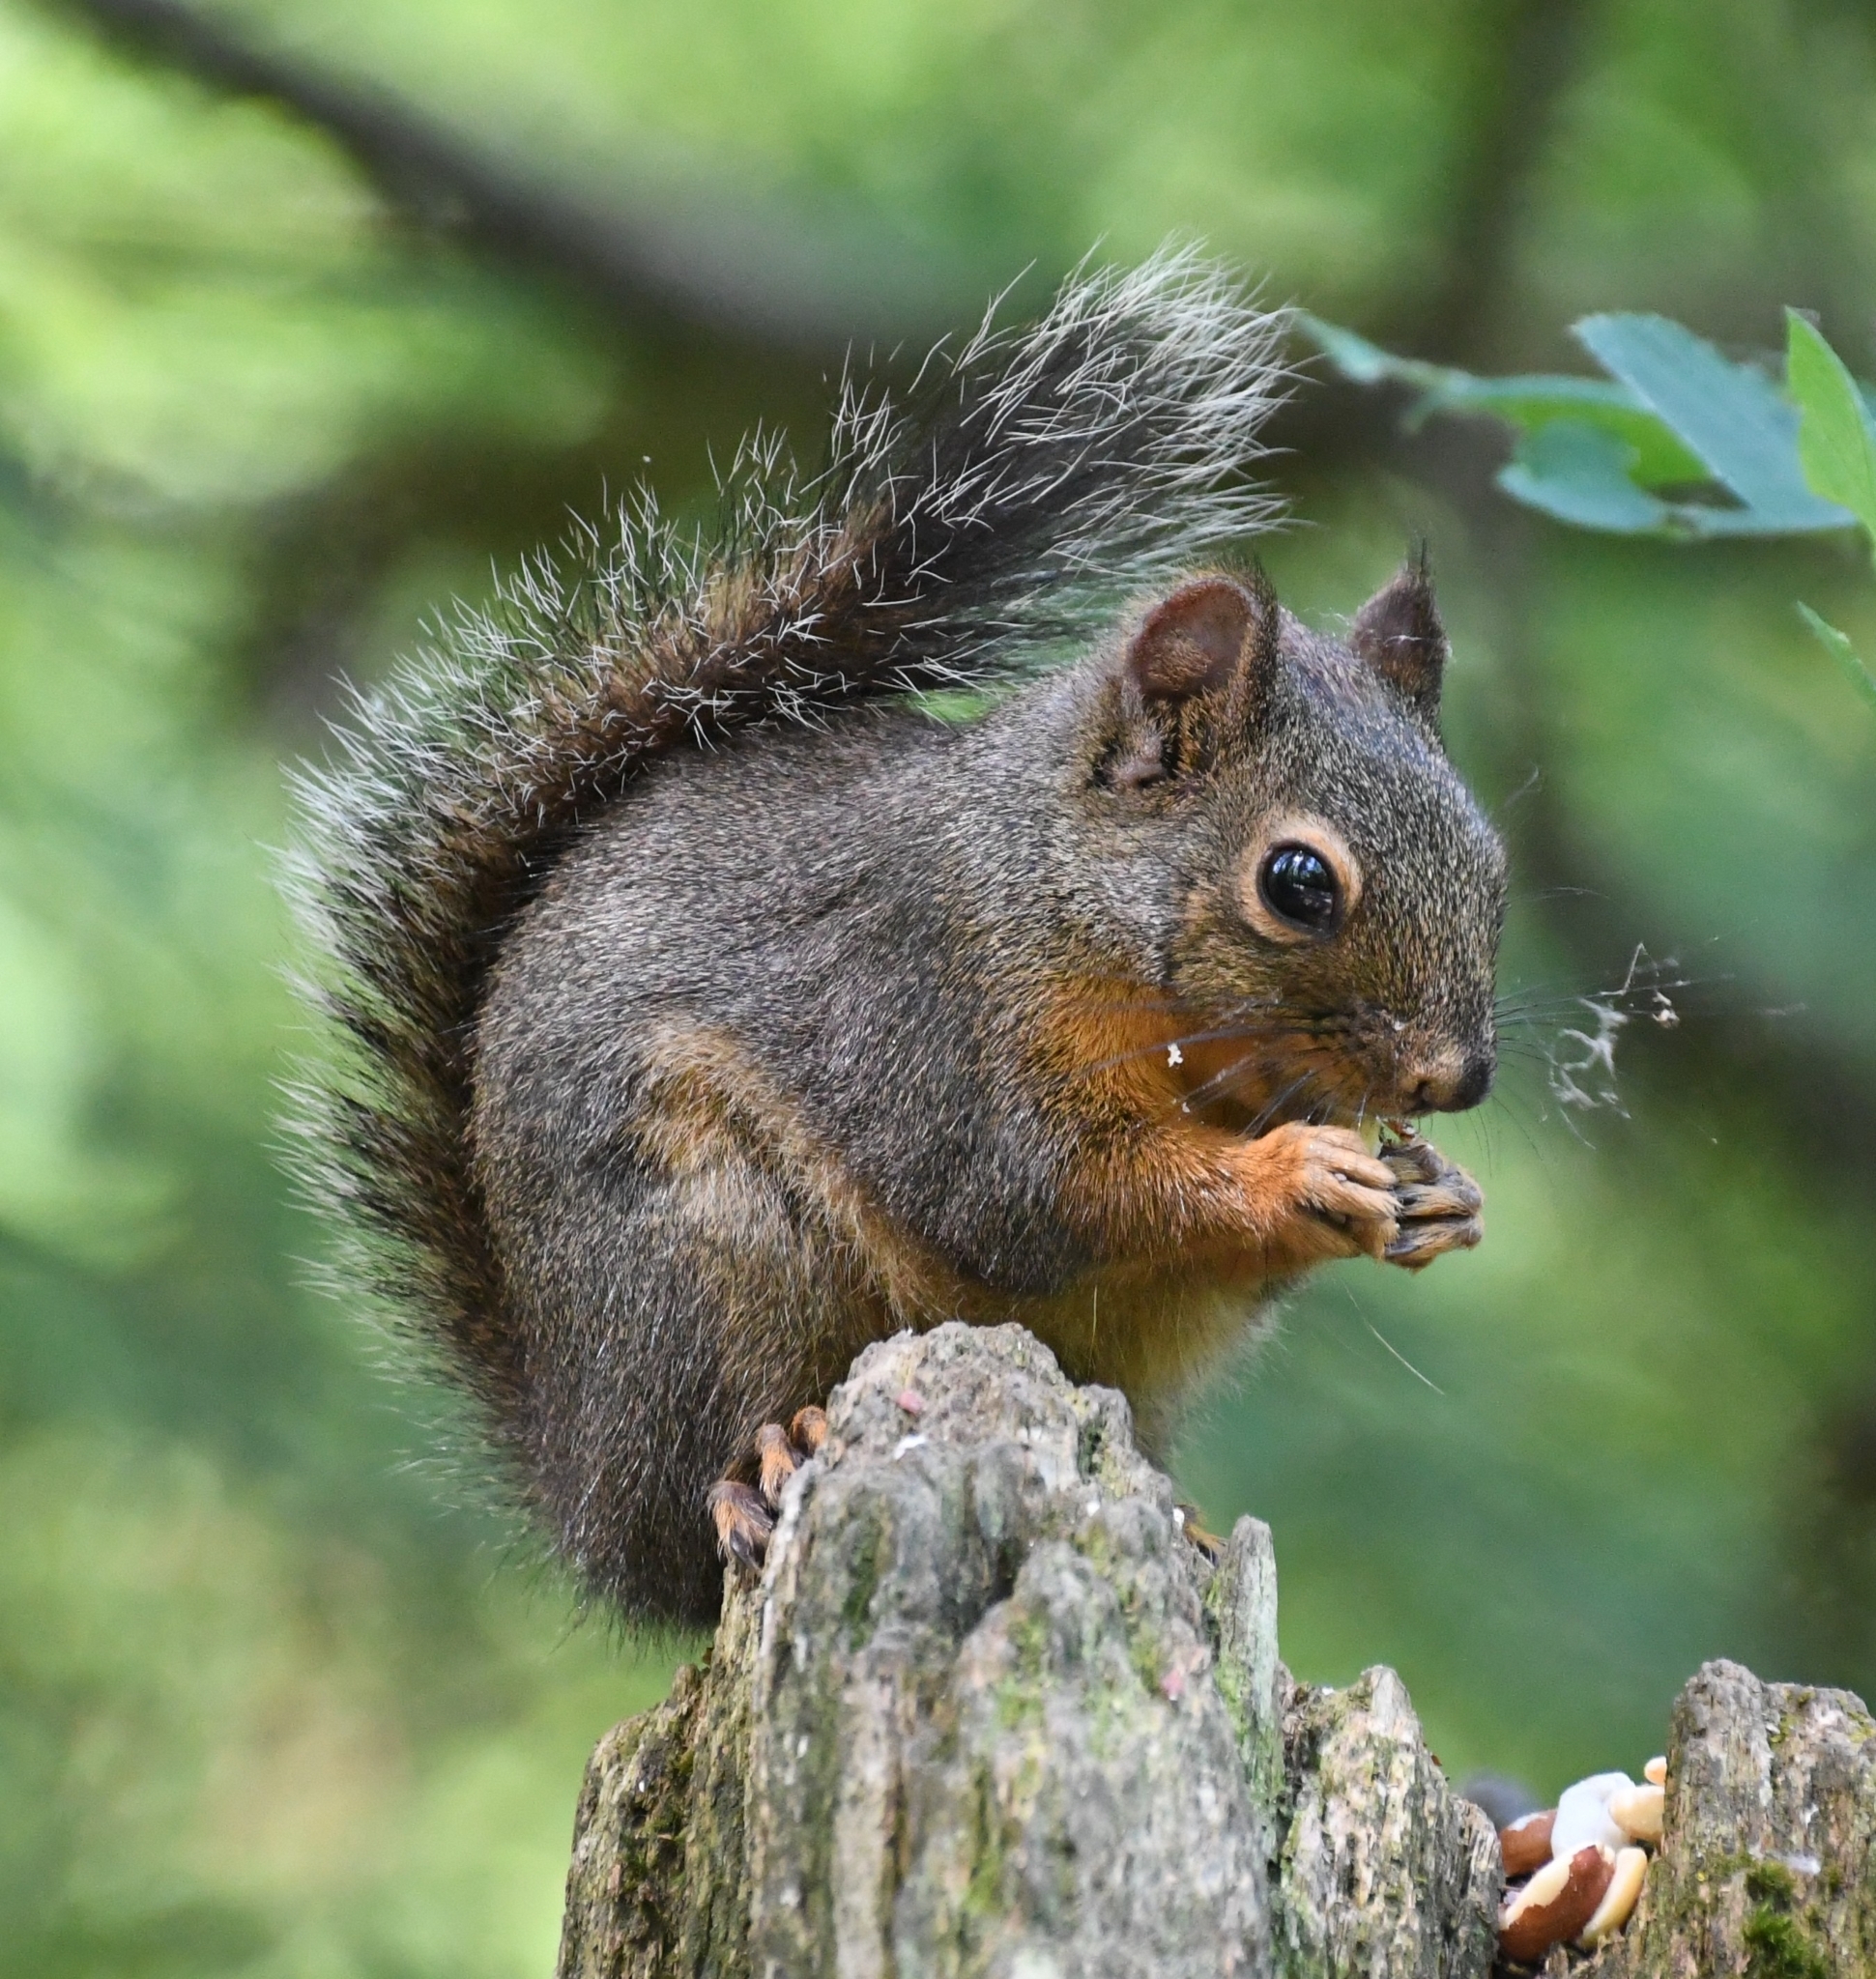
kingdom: Animalia
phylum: Chordata
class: Mammalia
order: Rodentia
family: Sciuridae
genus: Tamiasciurus
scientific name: Tamiasciurus douglasii
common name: Douglas's squirrel
